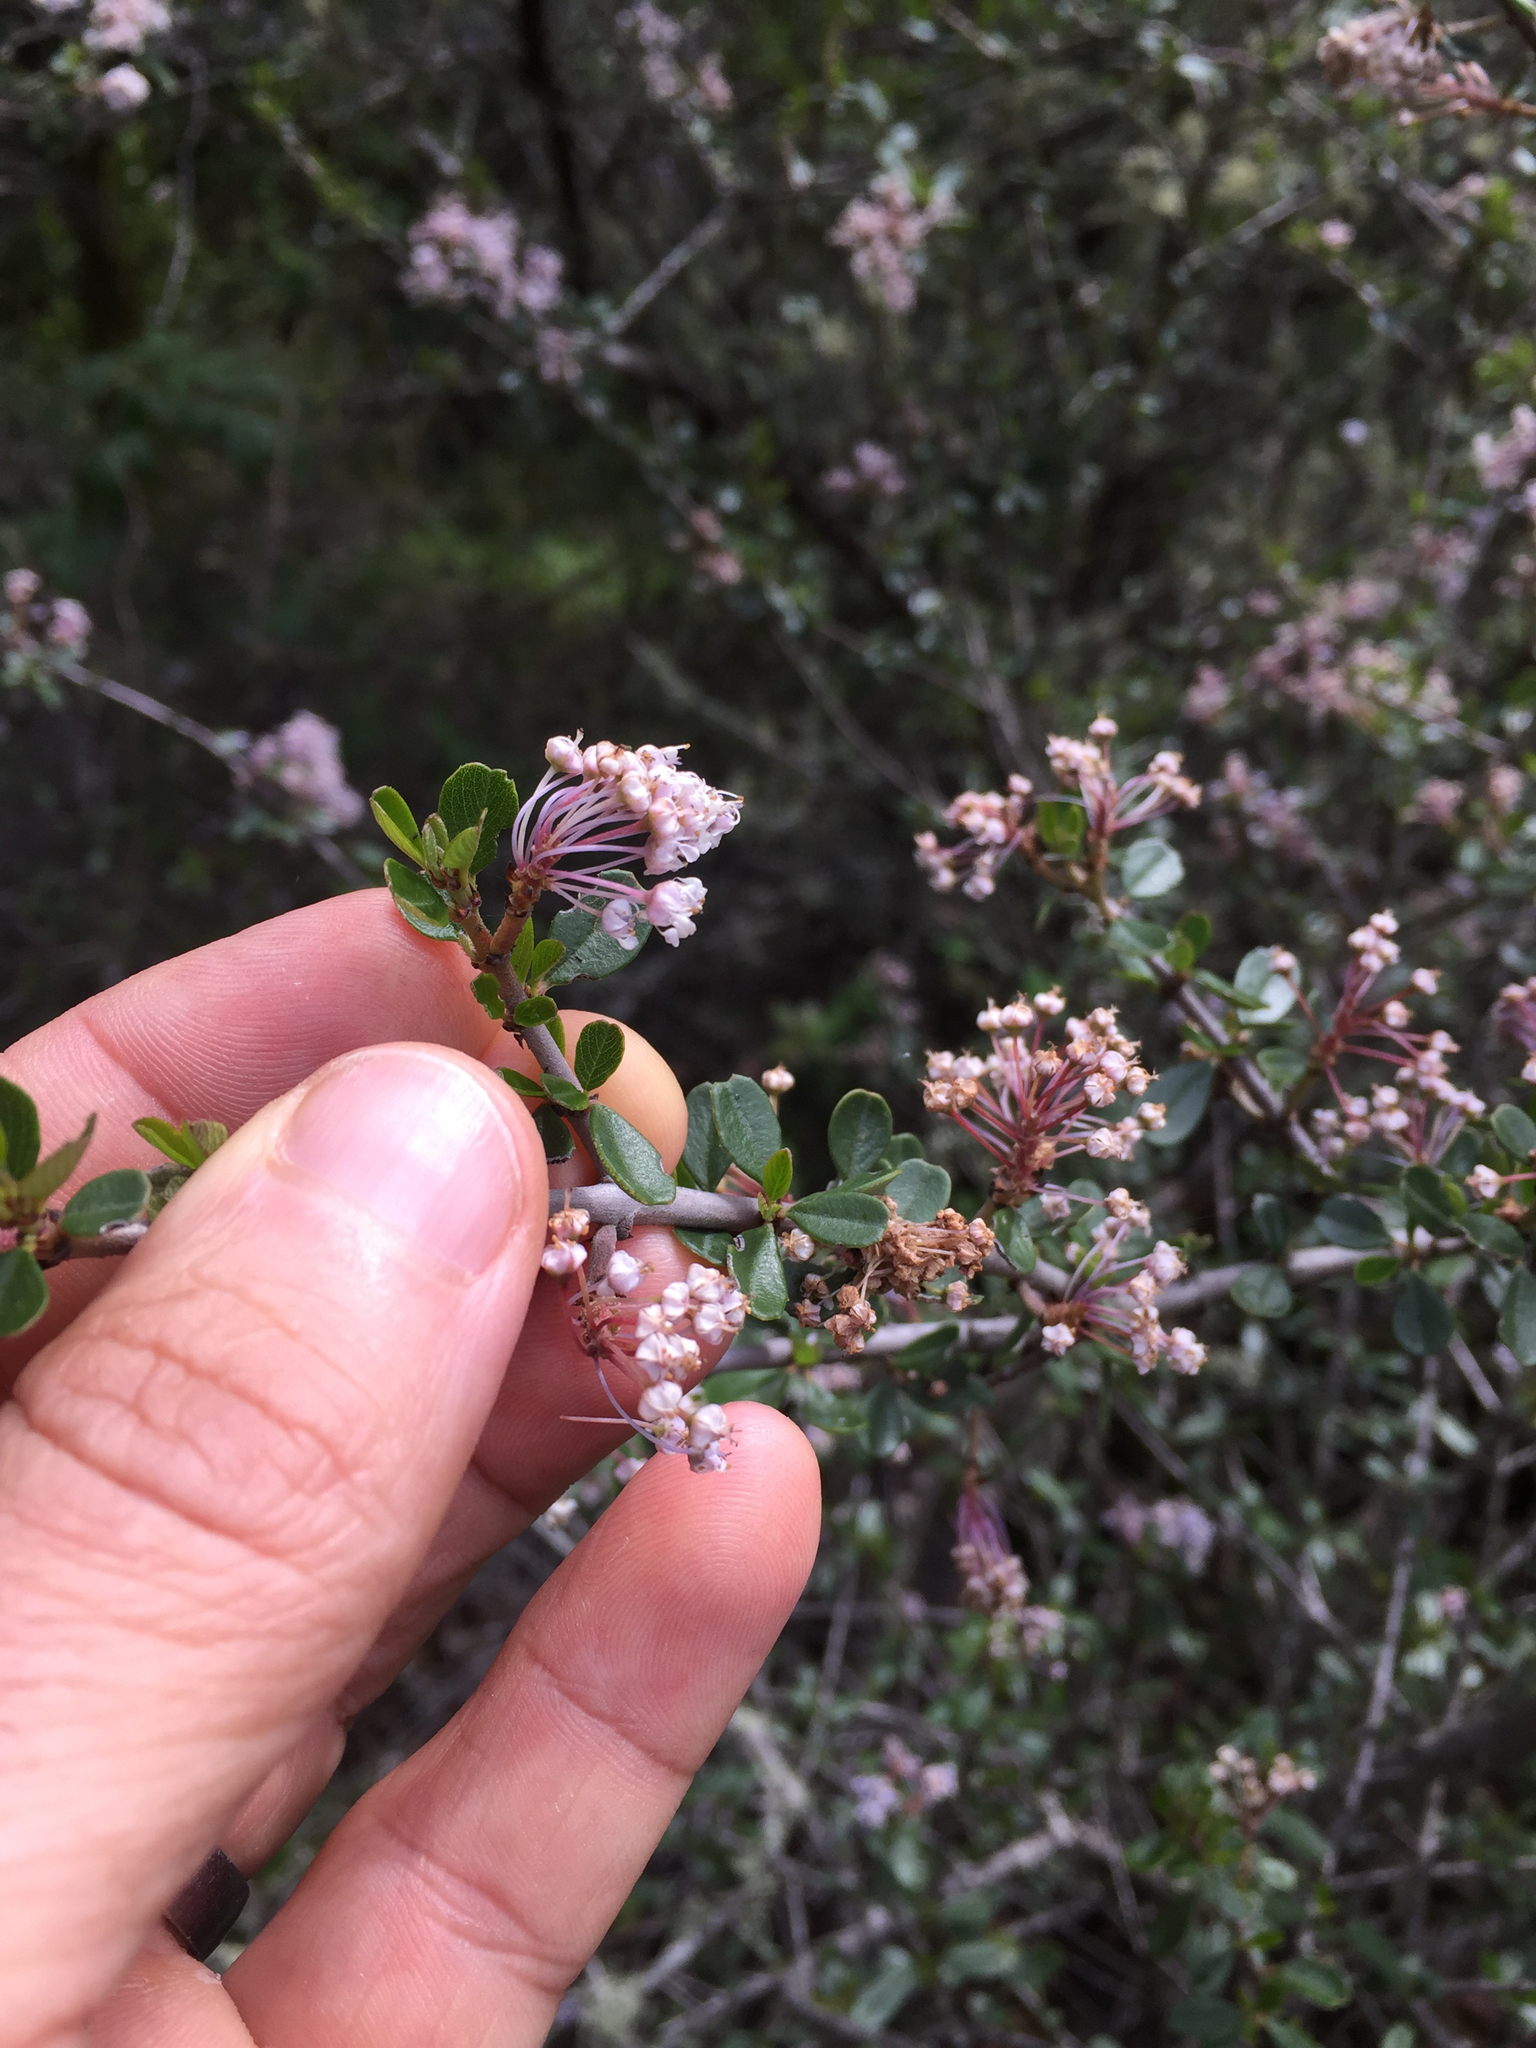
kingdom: Plantae
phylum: Tracheophyta
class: Magnoliopsida
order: Rosales
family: Rhamnaceae
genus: Ceanothus
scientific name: Ceanothus cuneatus
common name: Cuneate ceanothus
